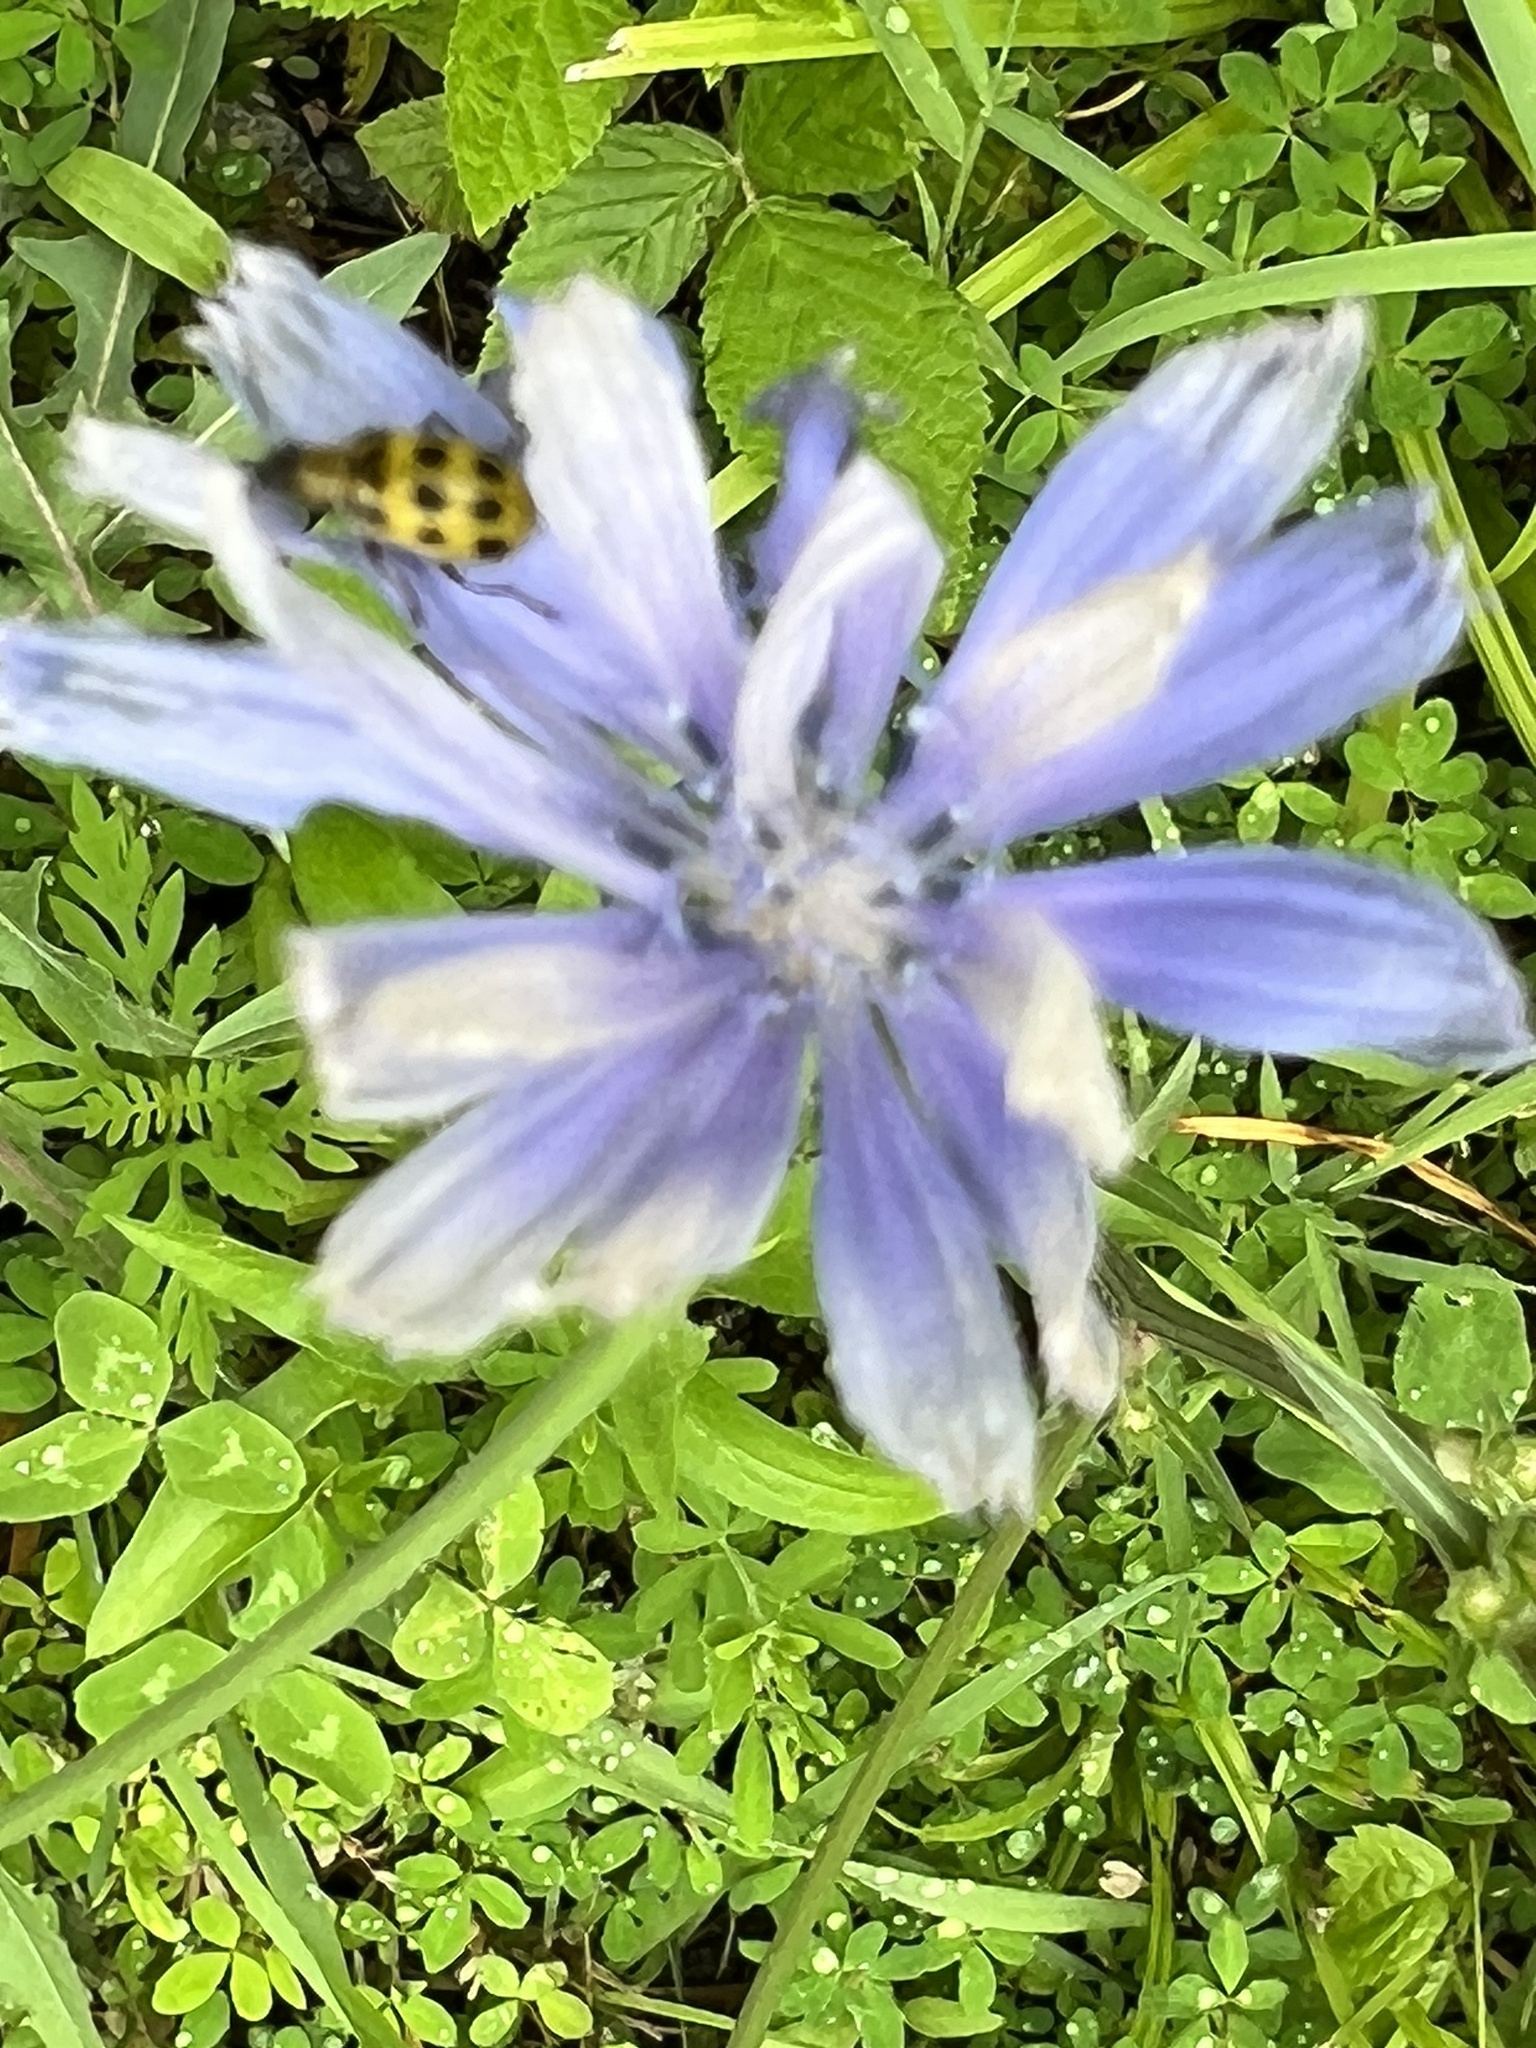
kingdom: Animalia
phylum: Arthropoda
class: Insecta
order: Coleoptera
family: Chrysomelidae
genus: Diabrotica
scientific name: Diabrotica undecimpunctata
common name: Spotted cucumber beetle
